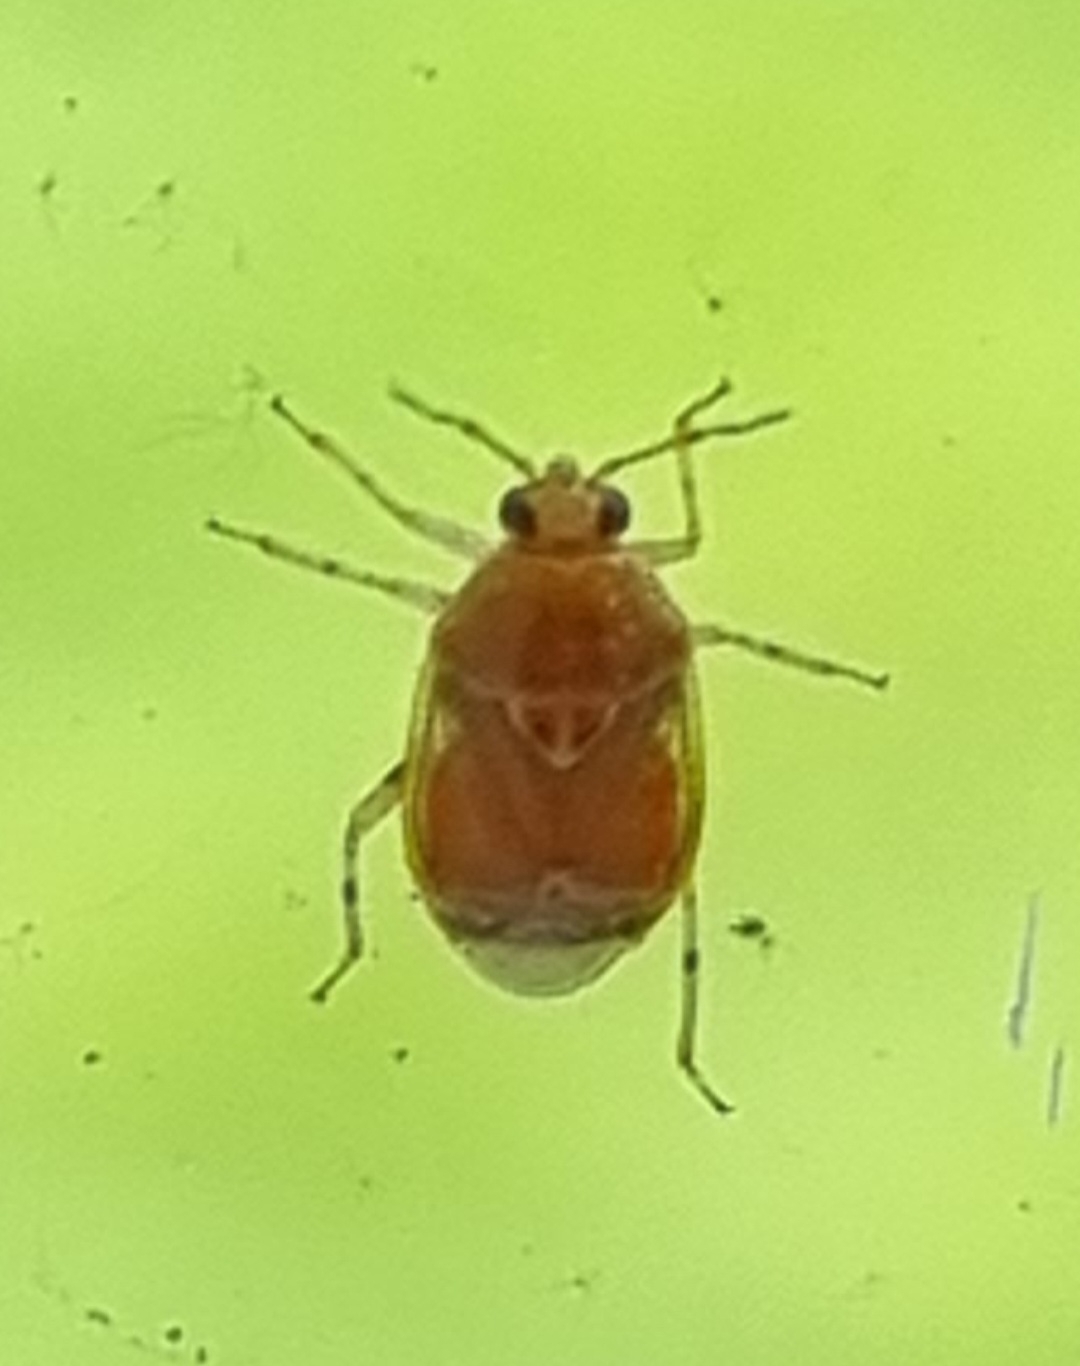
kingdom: Animalia
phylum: Arthropoda
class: Insecta
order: Hemiptera
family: Miridae
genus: Deraeocoris
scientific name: Deraeocoris lutescens
